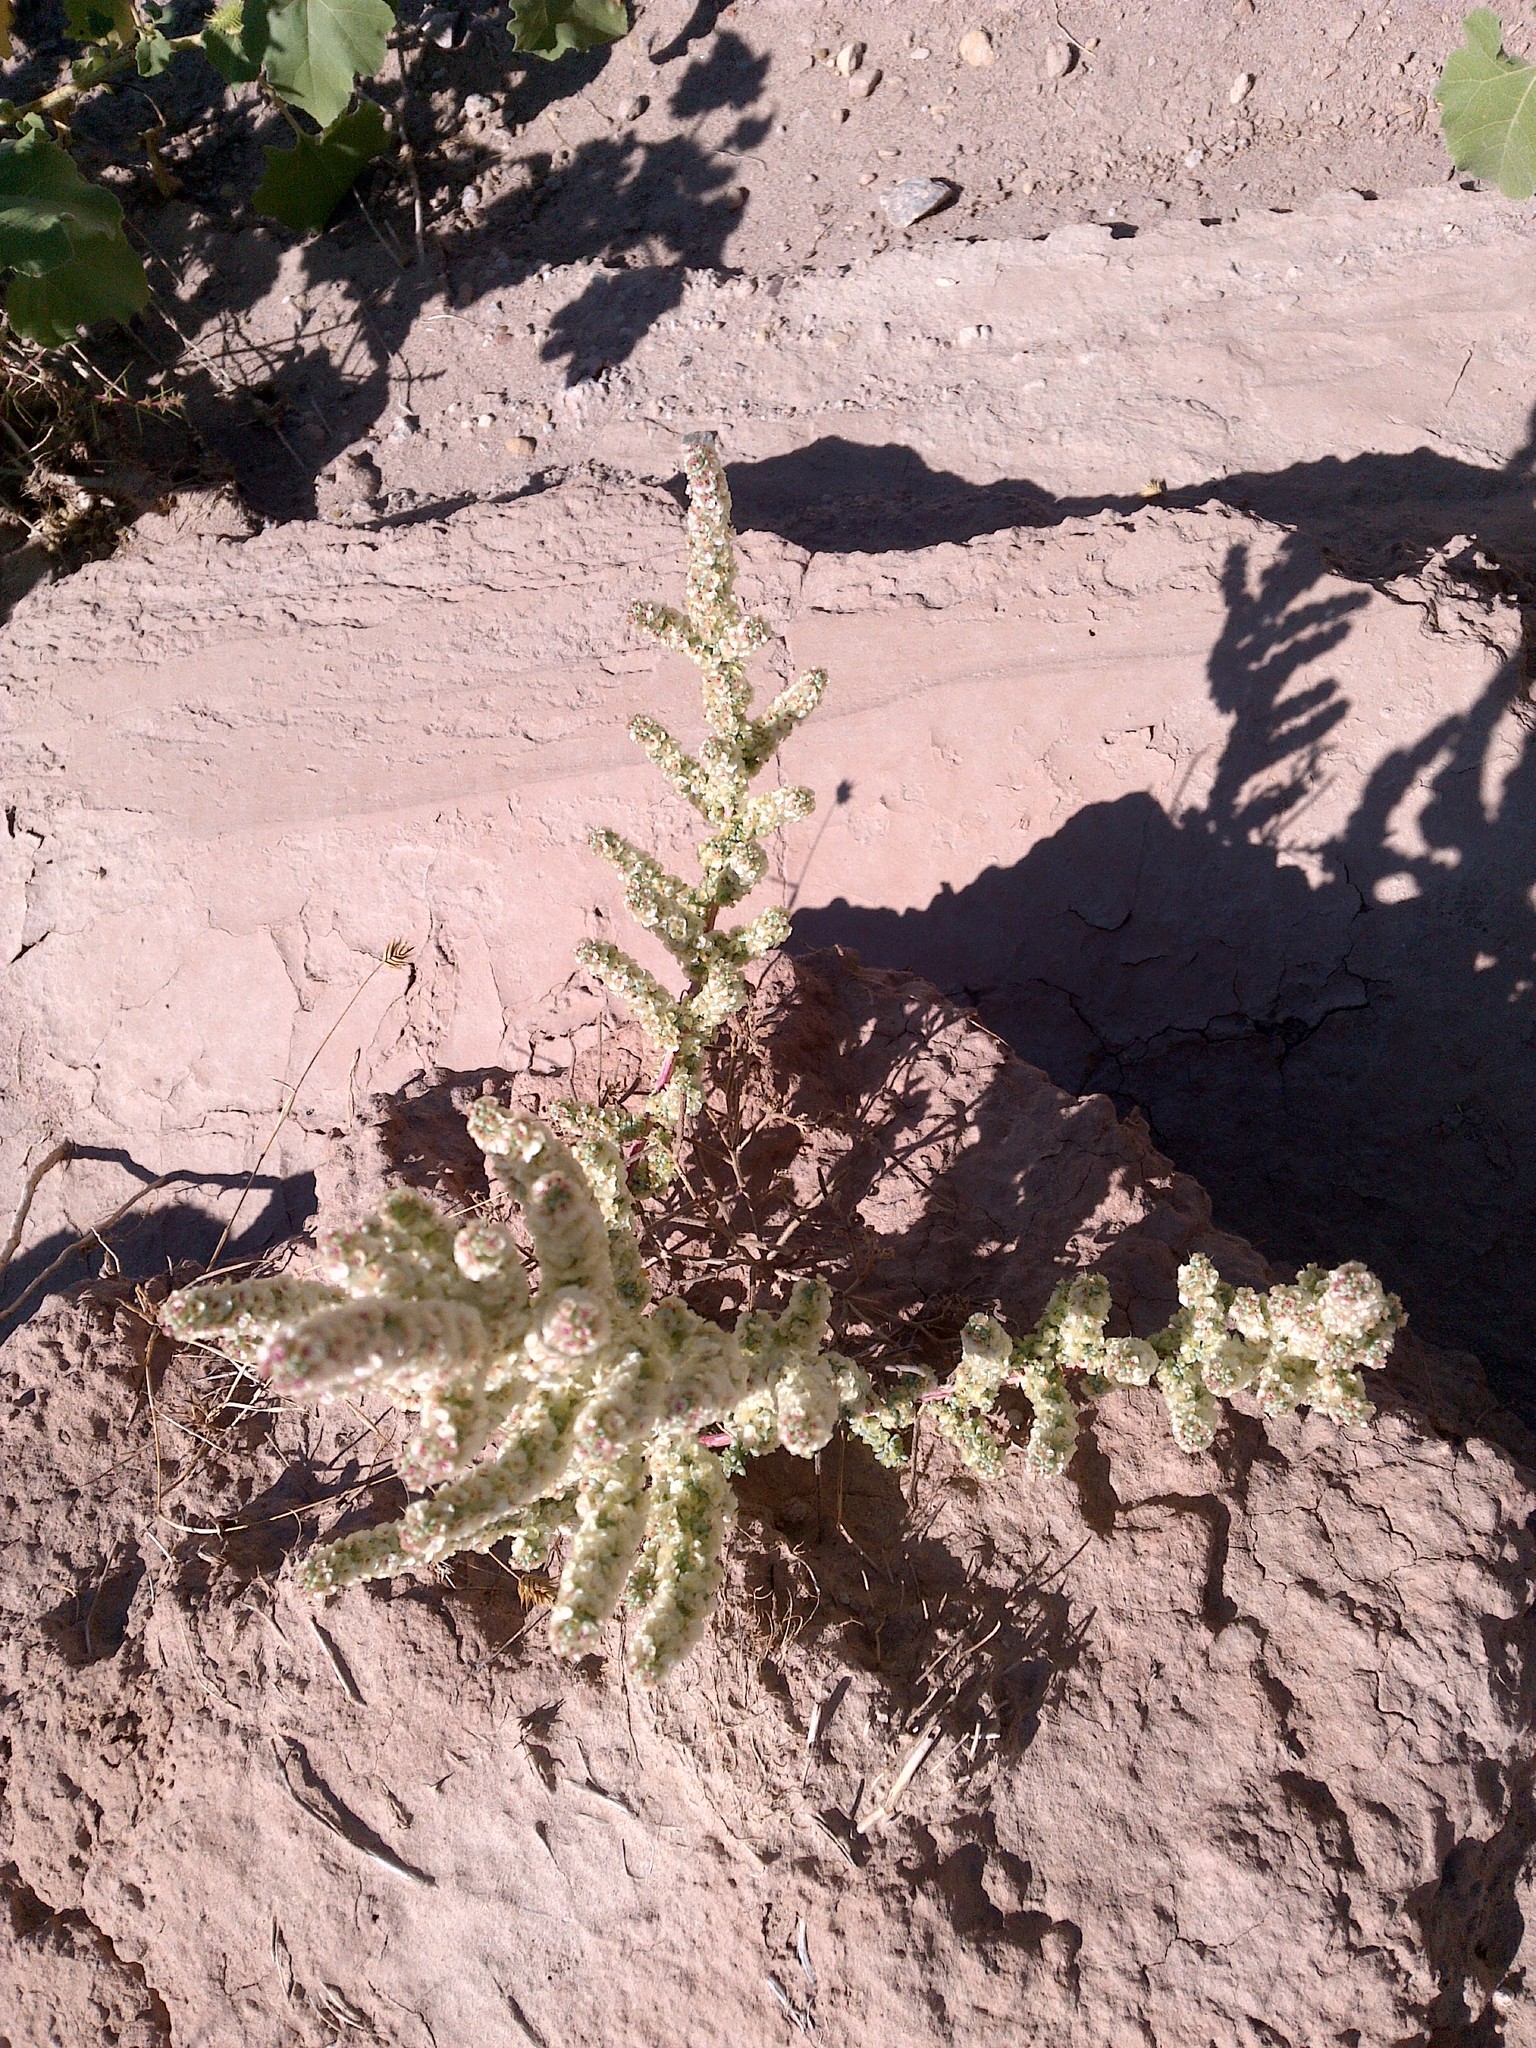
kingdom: Plantae
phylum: Tracheophyta
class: Magnoliopsida
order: Caryophyllales
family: Amaranthaceae
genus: Halogeton
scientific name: Halogeton glomeratus
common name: Saltlover
